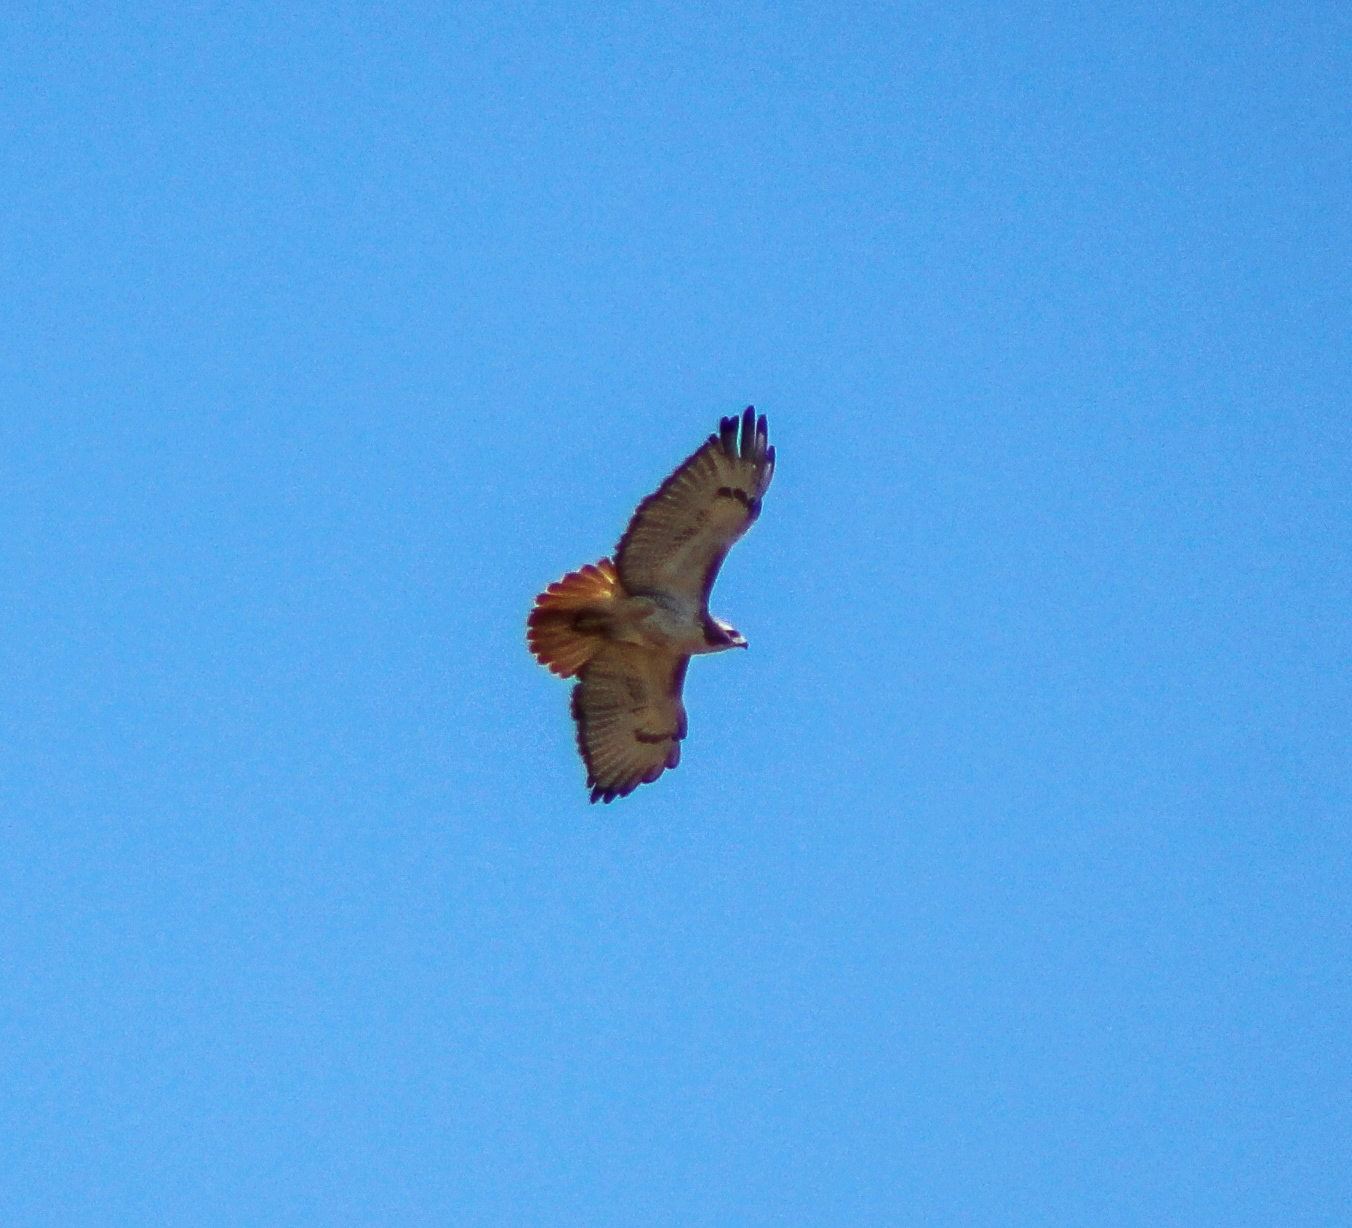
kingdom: Animalia
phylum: Chordata
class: Aves
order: Accipitriformes
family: Accipitridae
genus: Buteo
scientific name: Buteo jamaicensis
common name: Red-tailed hawk
